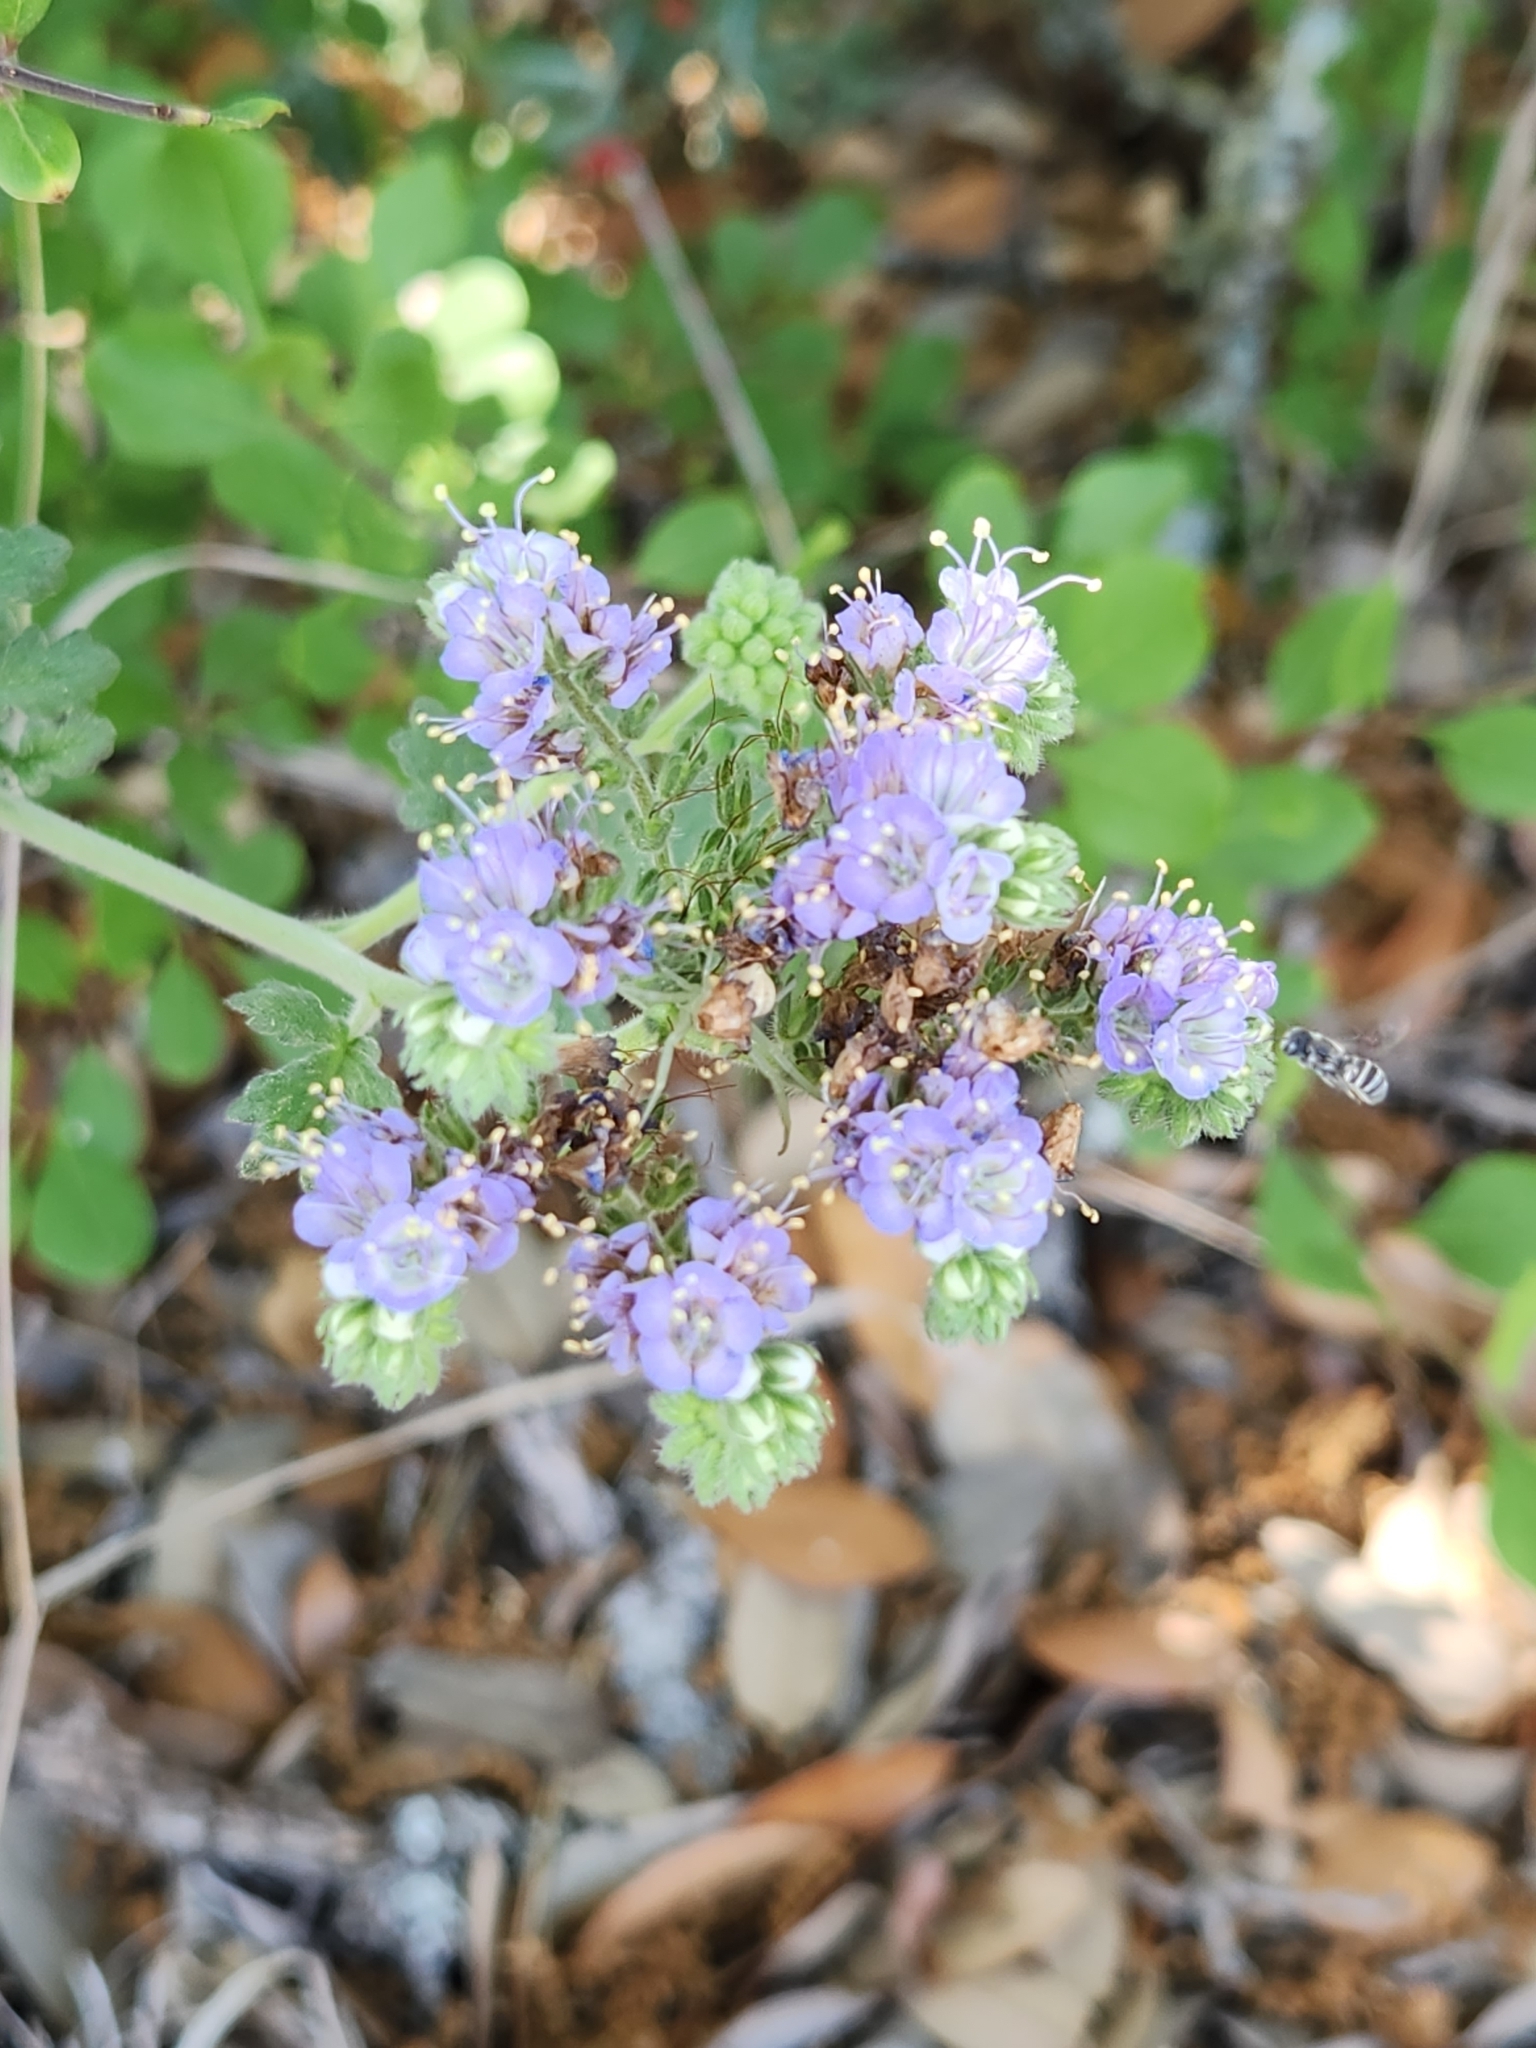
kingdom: Plantae
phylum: Tracheophyta
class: Magnoliopsida
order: Boraginales
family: Hydrophyllaceae
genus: Phacelia
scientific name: Phacelia congesta
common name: Blue curls
